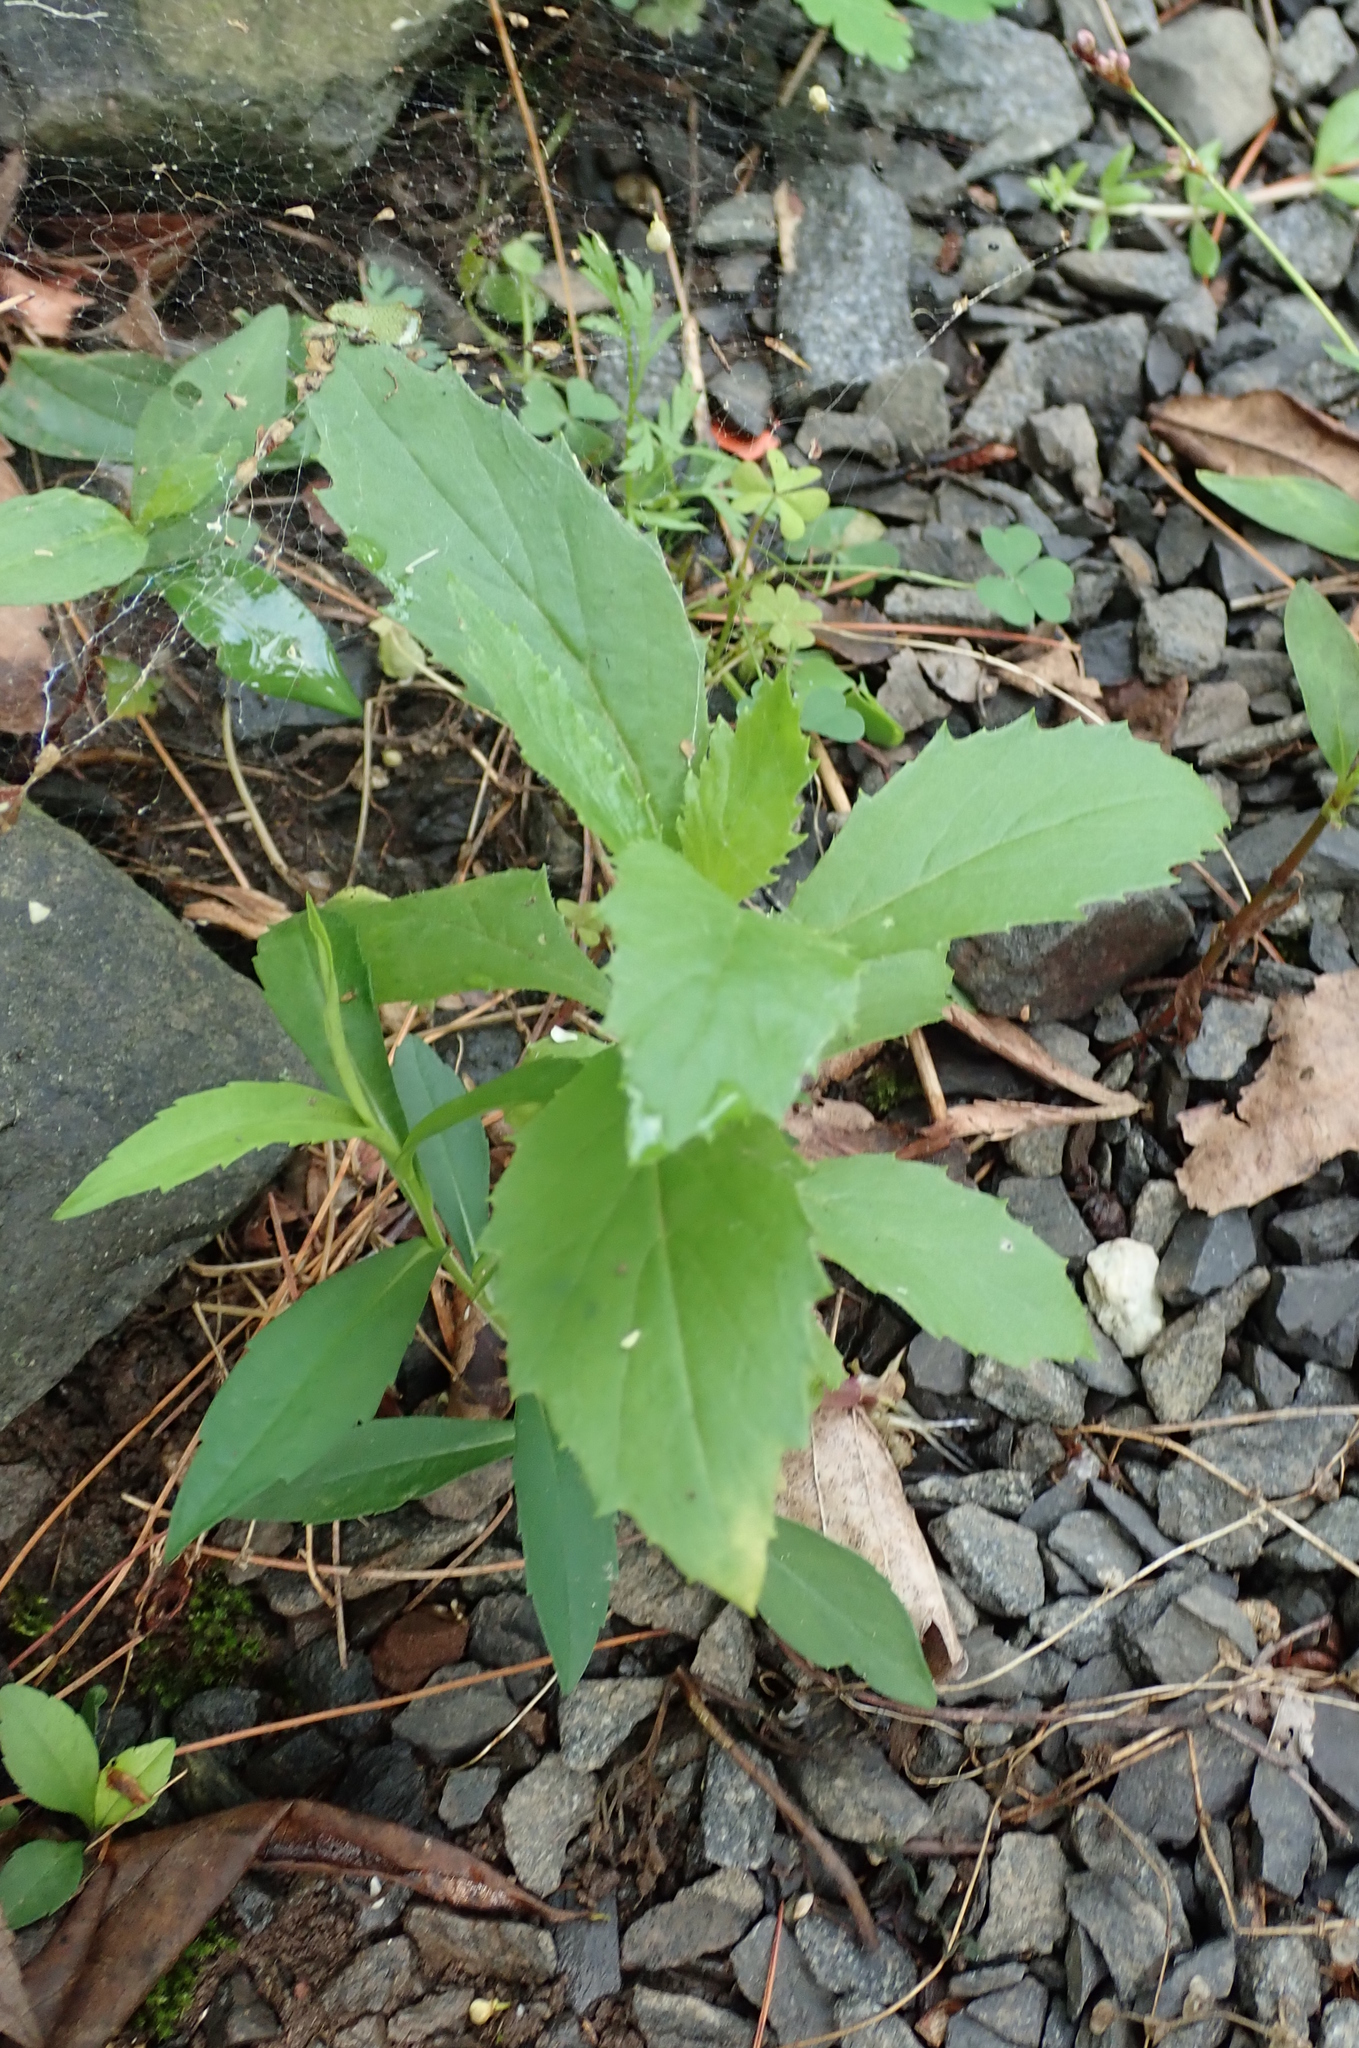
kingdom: Plantae
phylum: Tracheophyta
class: Magnoliopsida
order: Asterales
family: Asteraceae
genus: Erechtites
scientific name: Erechtites hieraciifolius
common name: American burnweed
